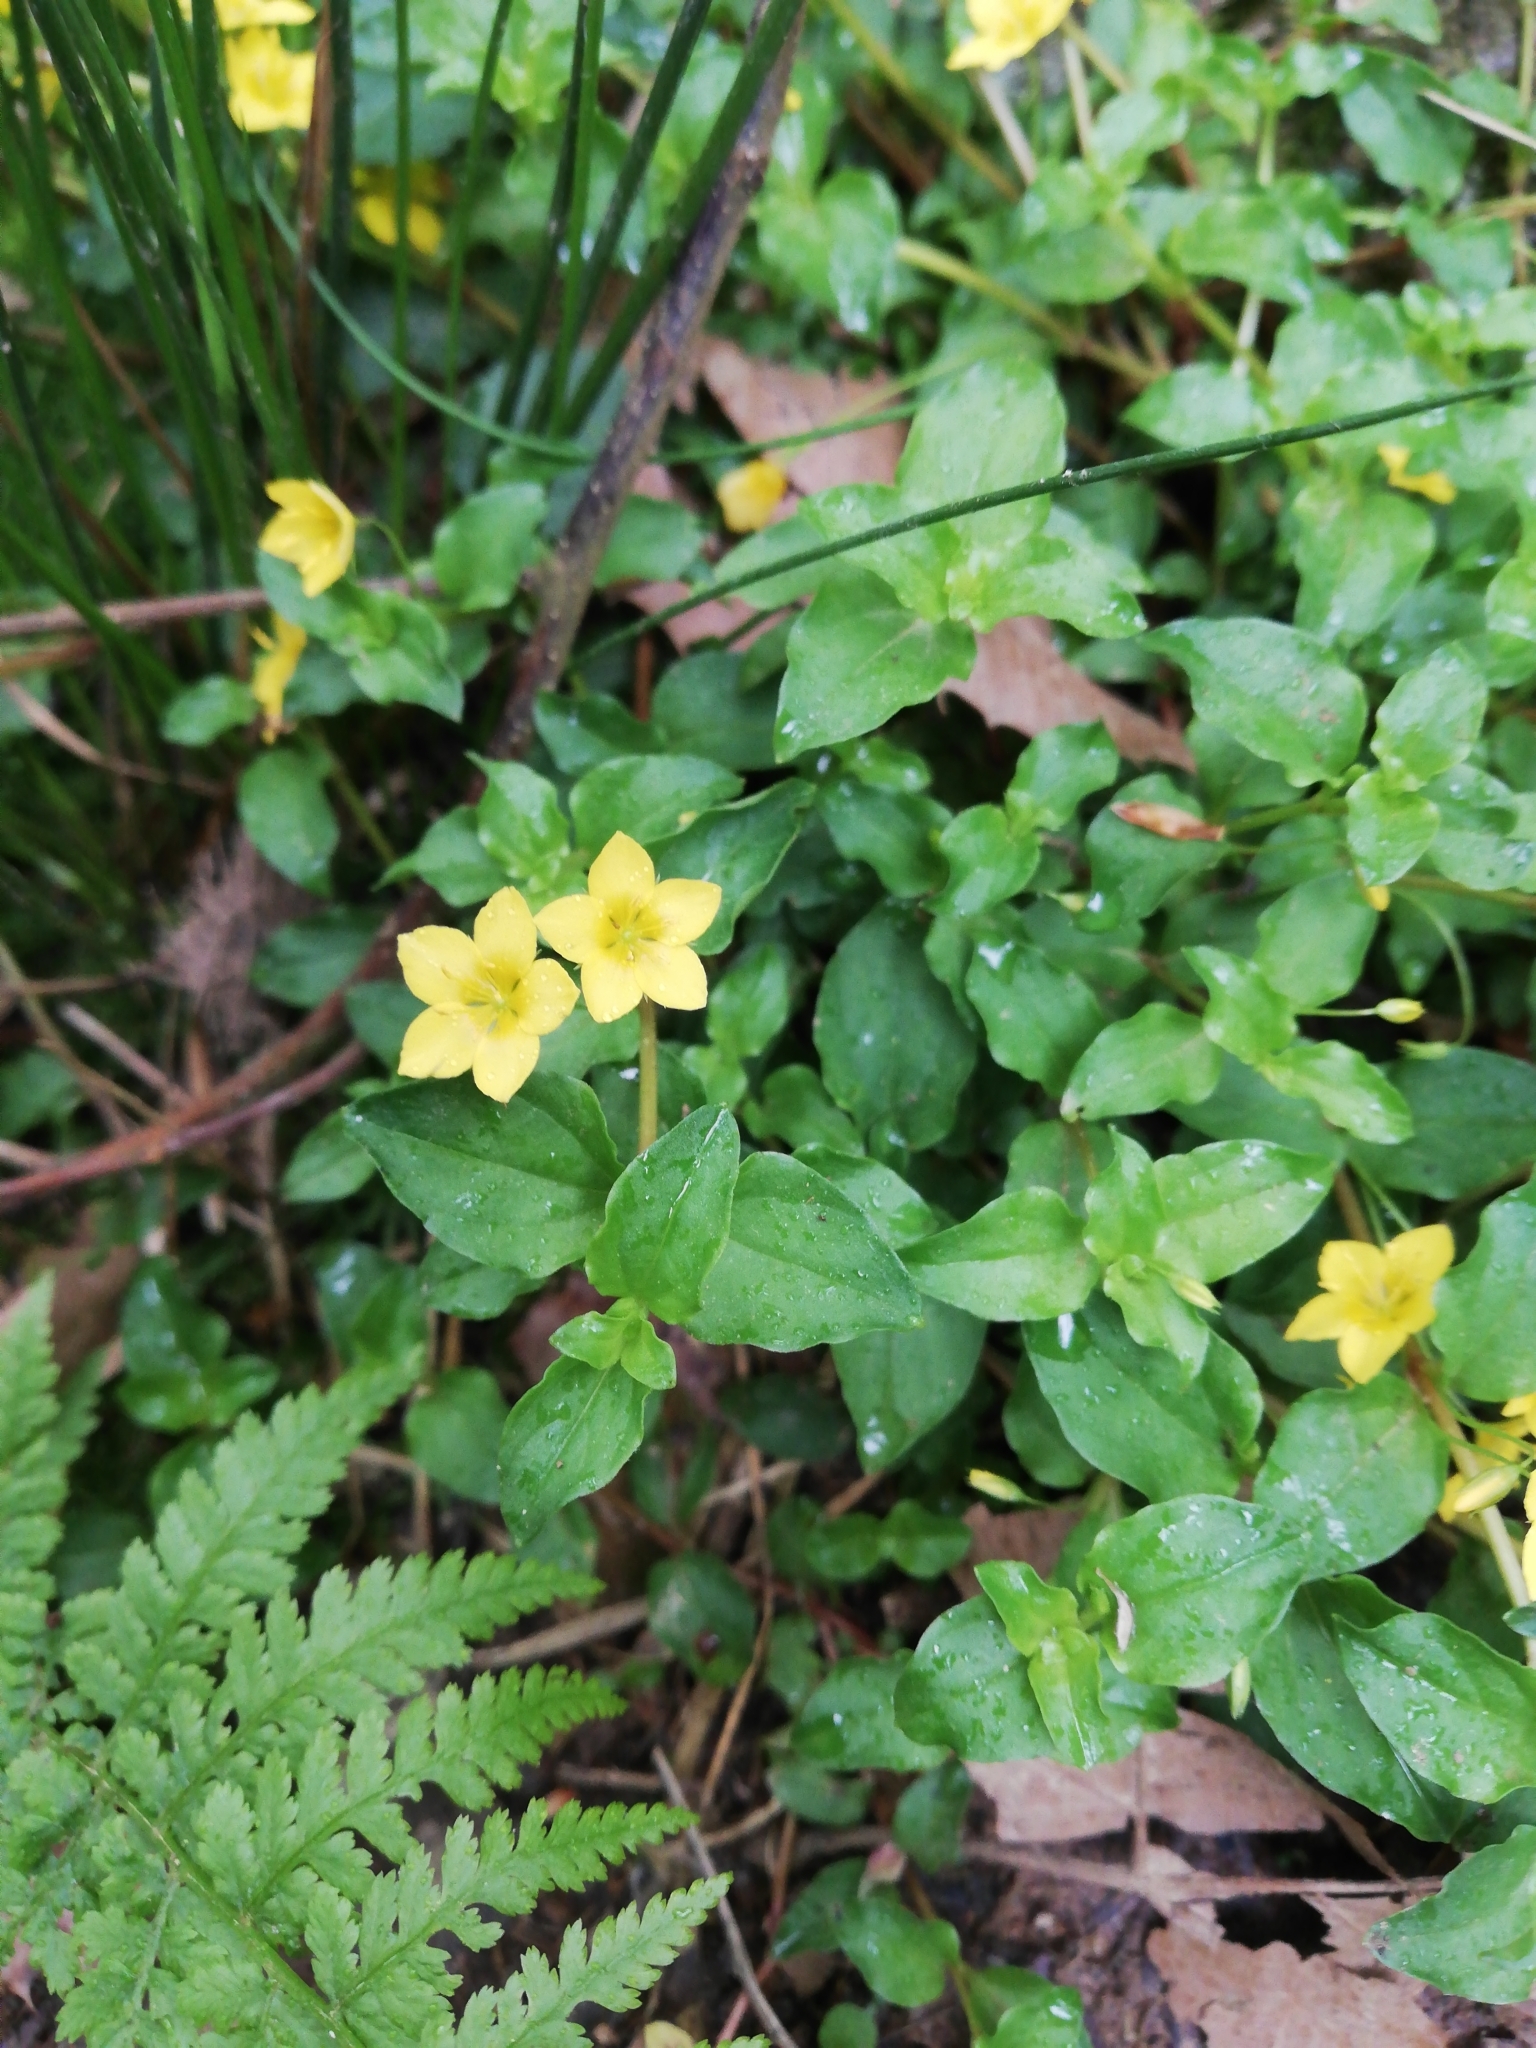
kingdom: Plantae
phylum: Tracheophyta
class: Magnoliopsida
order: Ericales
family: Primulaceae
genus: Lysimachia
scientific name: Lysimachia nemorum
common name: Yellow pimpernel
